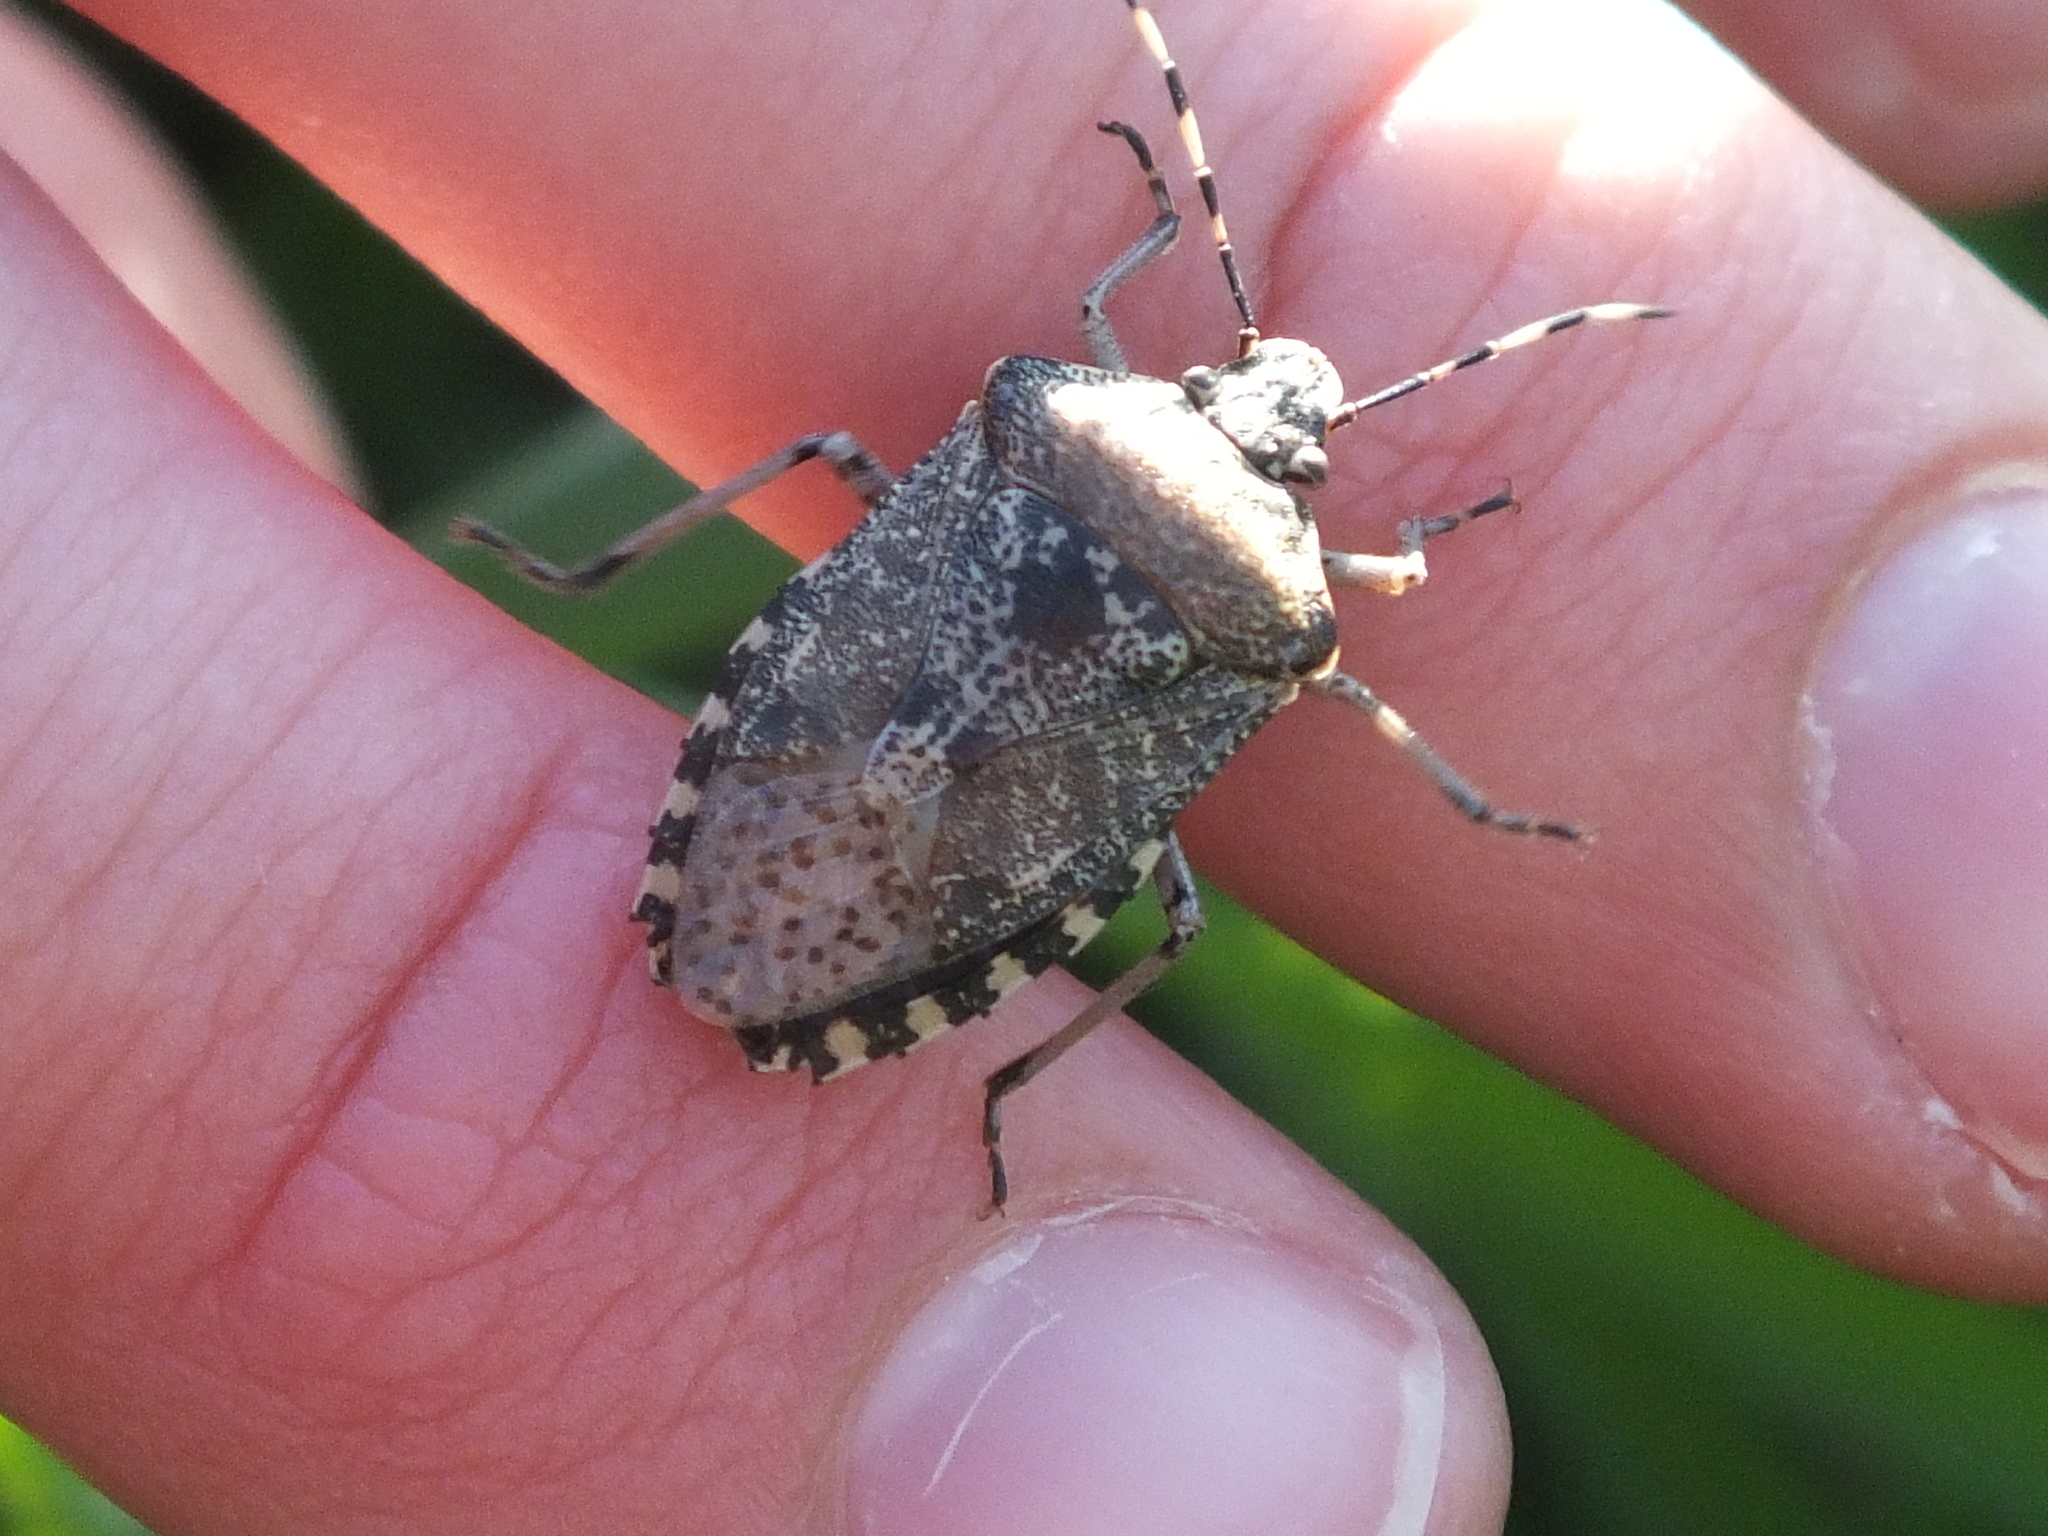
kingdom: Animalia
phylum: Arthropoda
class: Insecta
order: Hemiptera
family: Pentatomidae
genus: Rhaphigaster
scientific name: Rhaphigaster nebulosa
